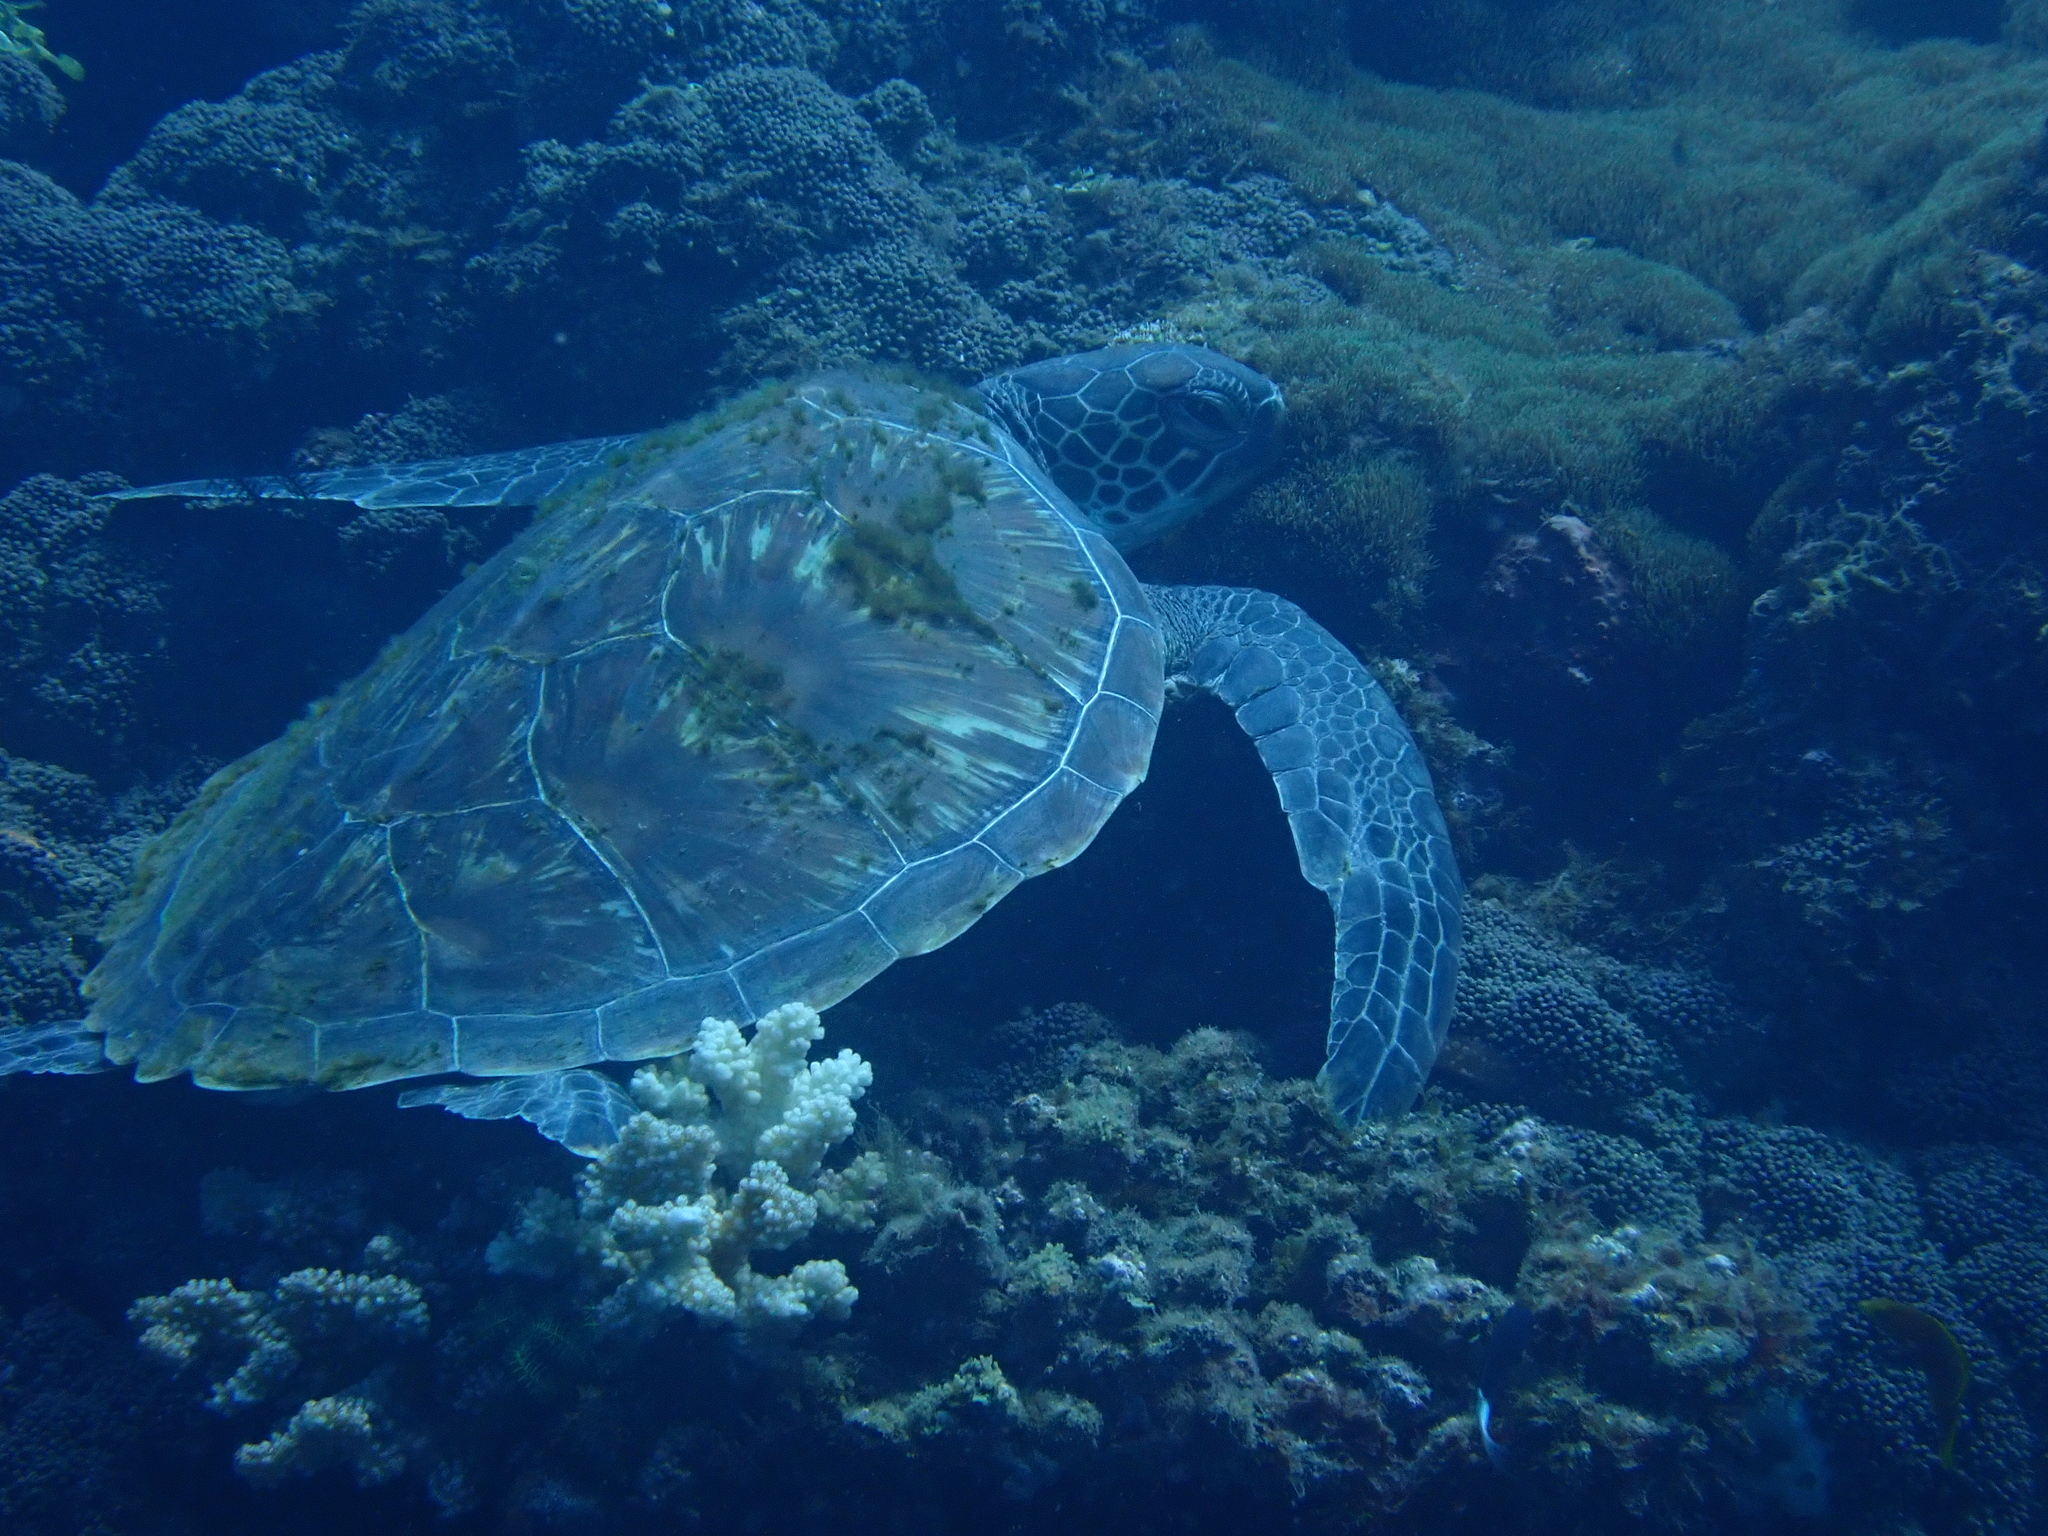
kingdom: Animalia
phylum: Chordata
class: Testudines
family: Cheloniidae
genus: Chelonia
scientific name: Chelonia mydas
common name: Green turtle
